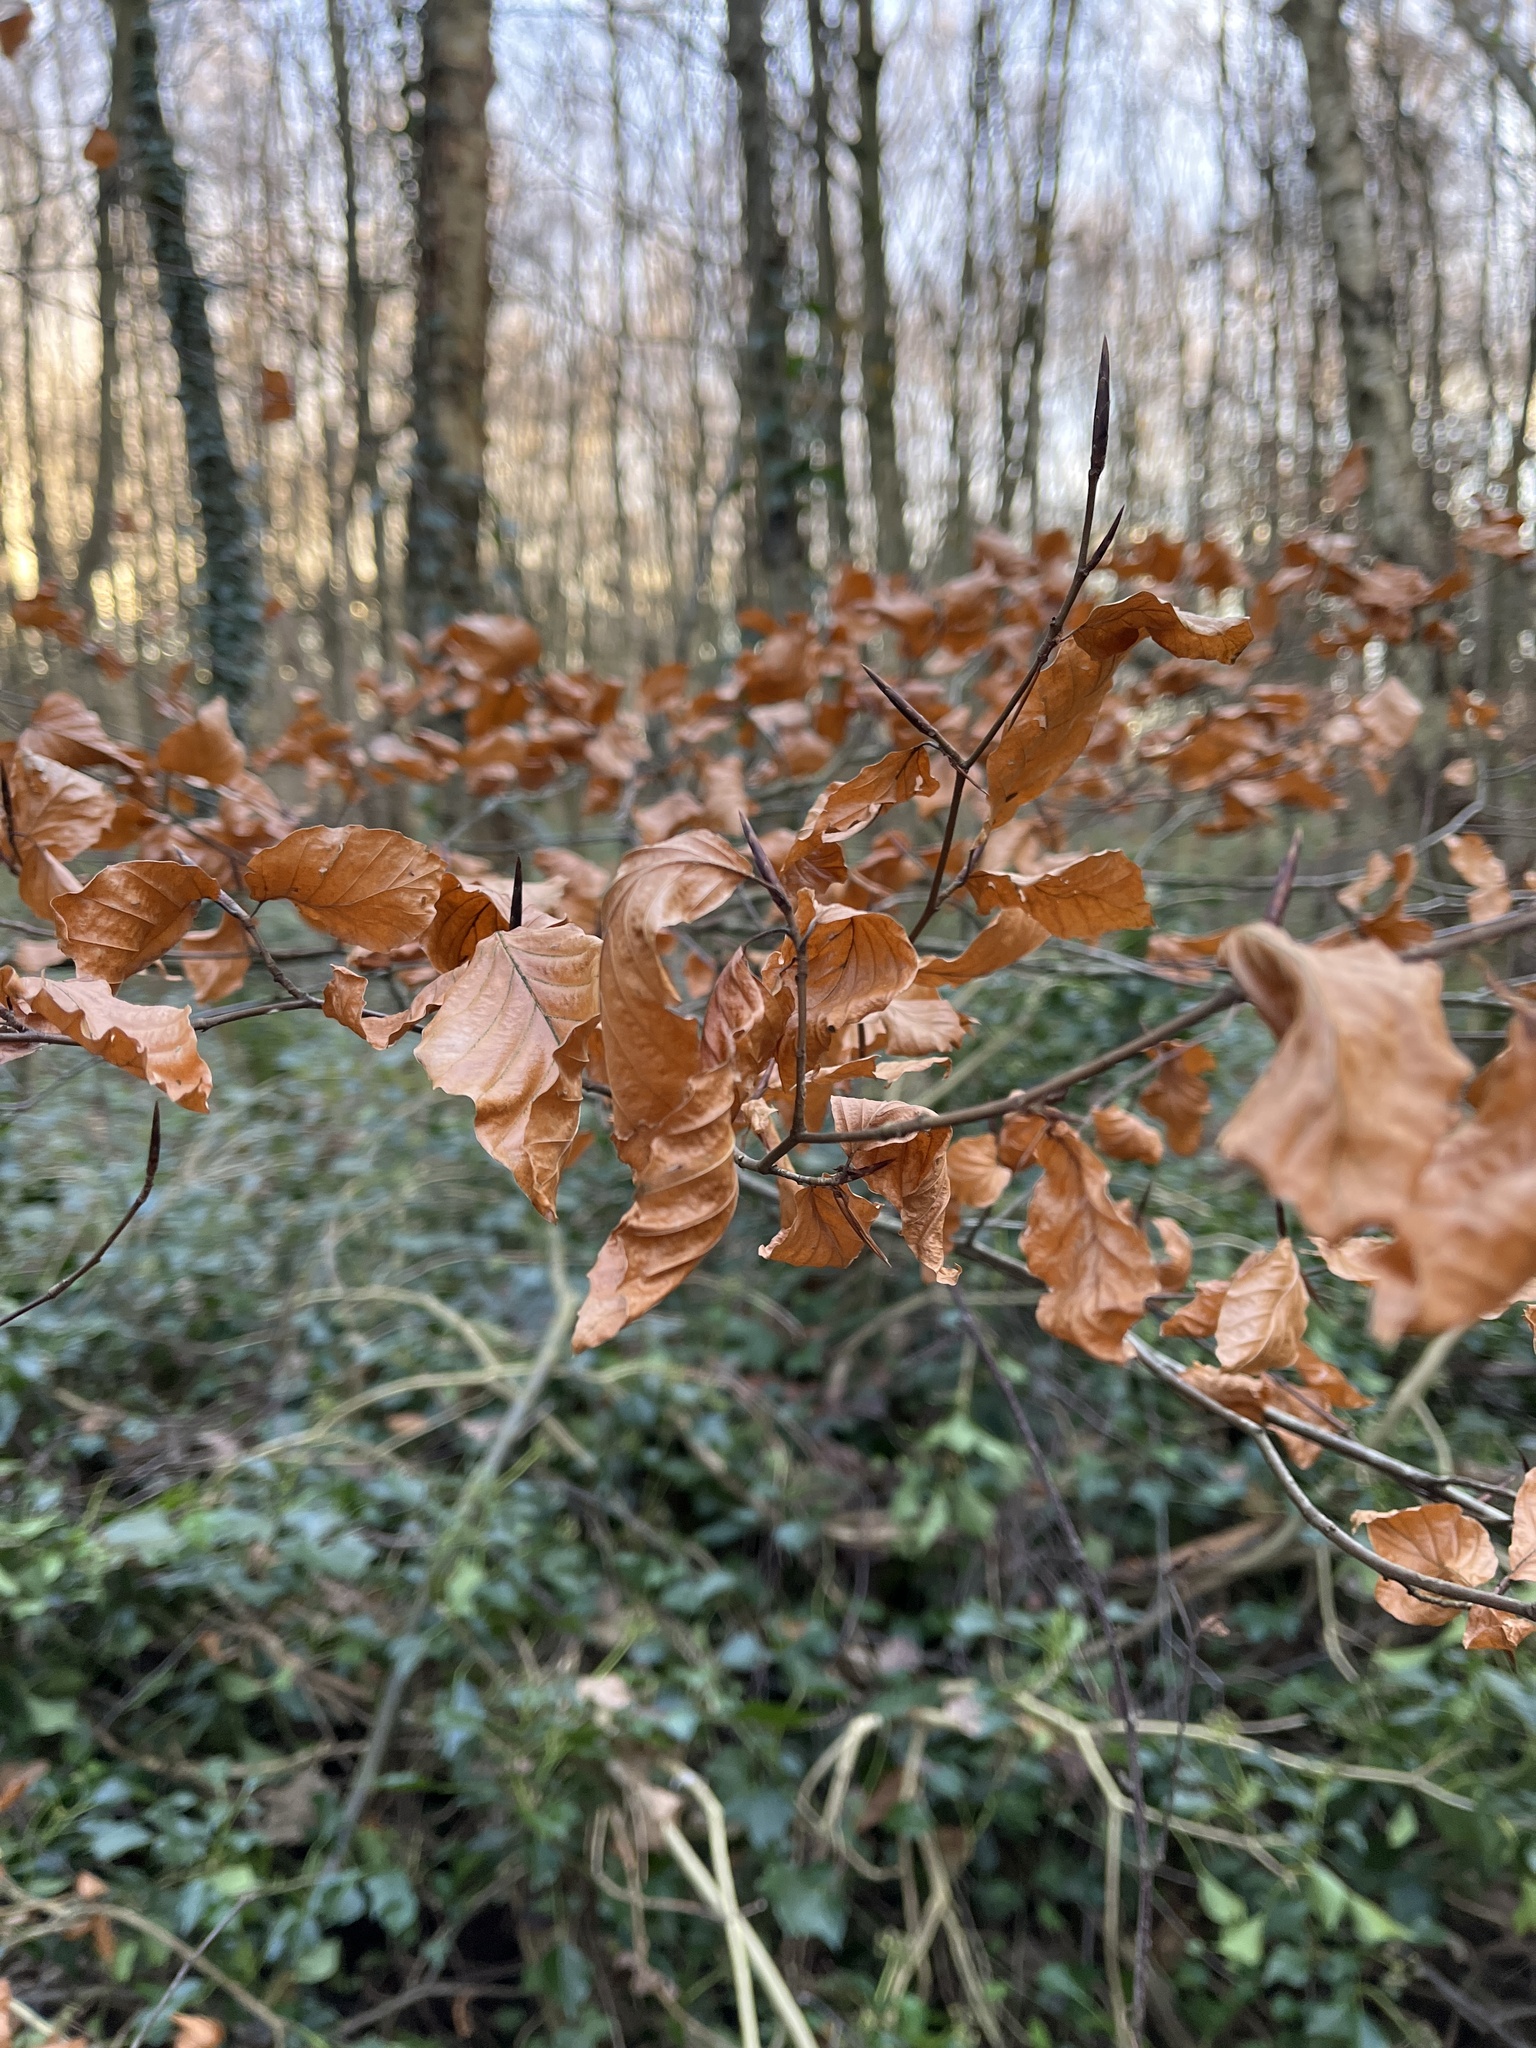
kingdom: Plantae
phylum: Tracheophyta
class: Magnoliopsida
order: Fagales
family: Fagaceae
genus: Fagus
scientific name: Fagus sylvatica
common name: Beech
